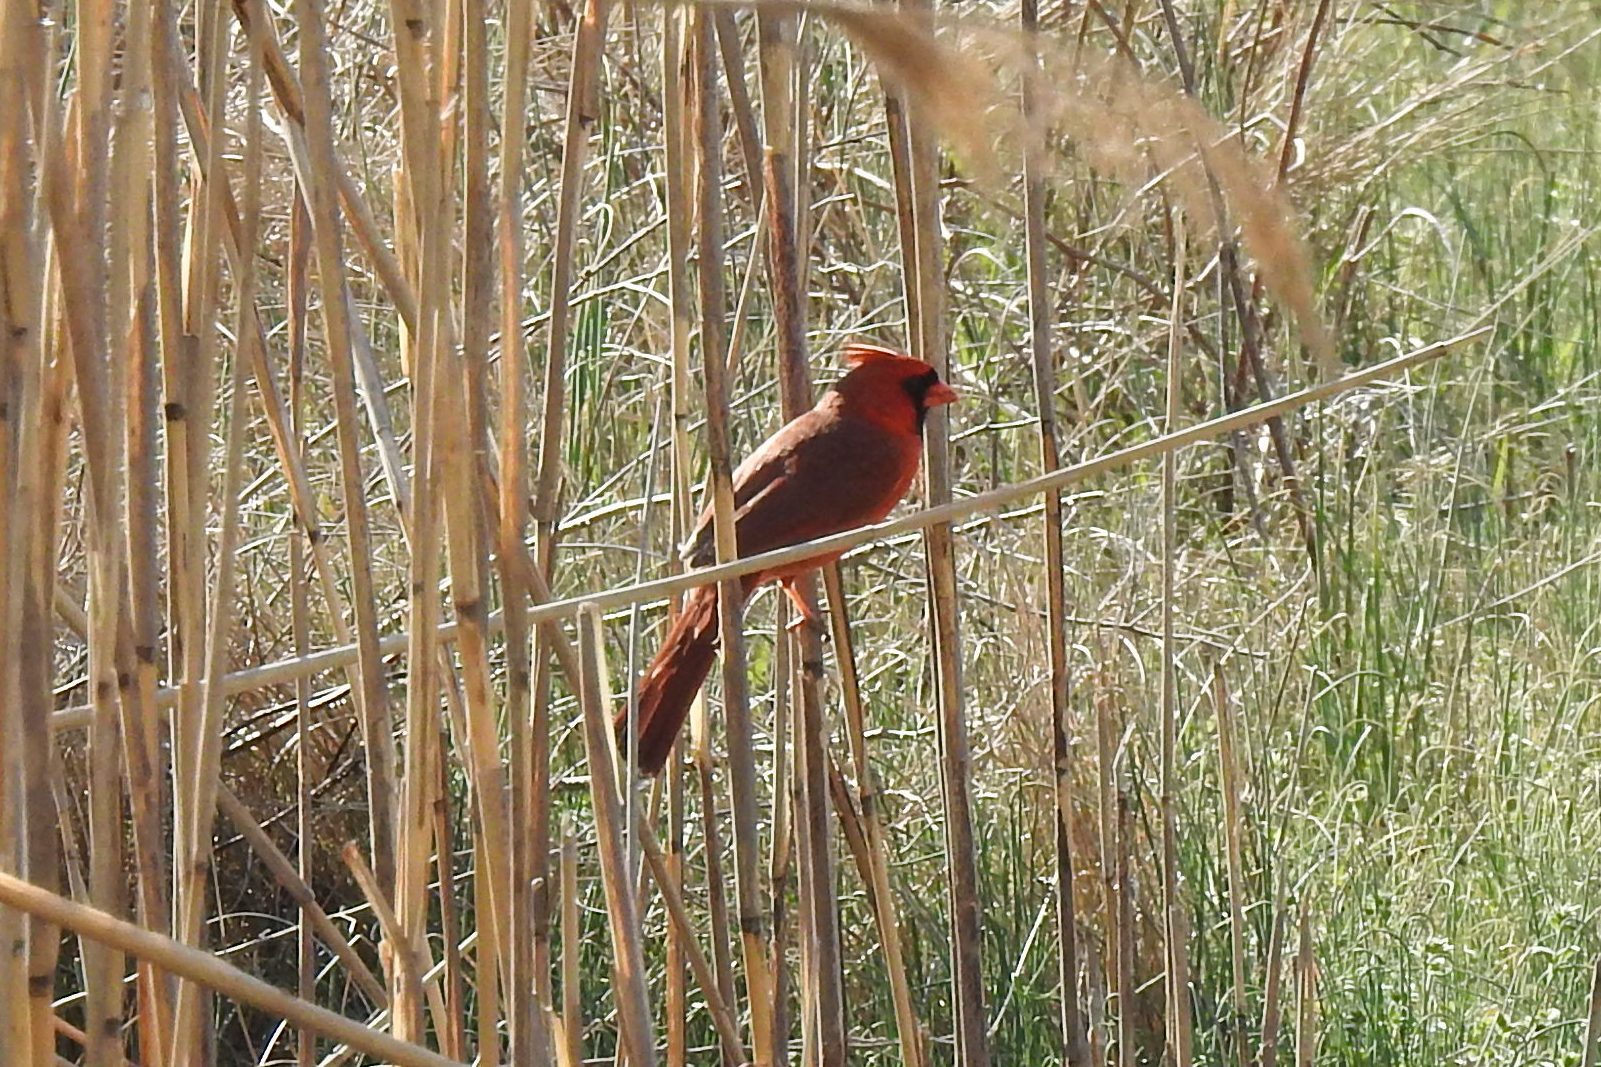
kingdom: Animalia
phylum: Chordata
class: Aves
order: Passeriformes
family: Cardinalidae
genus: Cardinalis
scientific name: Cardinalis cardinalis
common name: Northern cardinal
